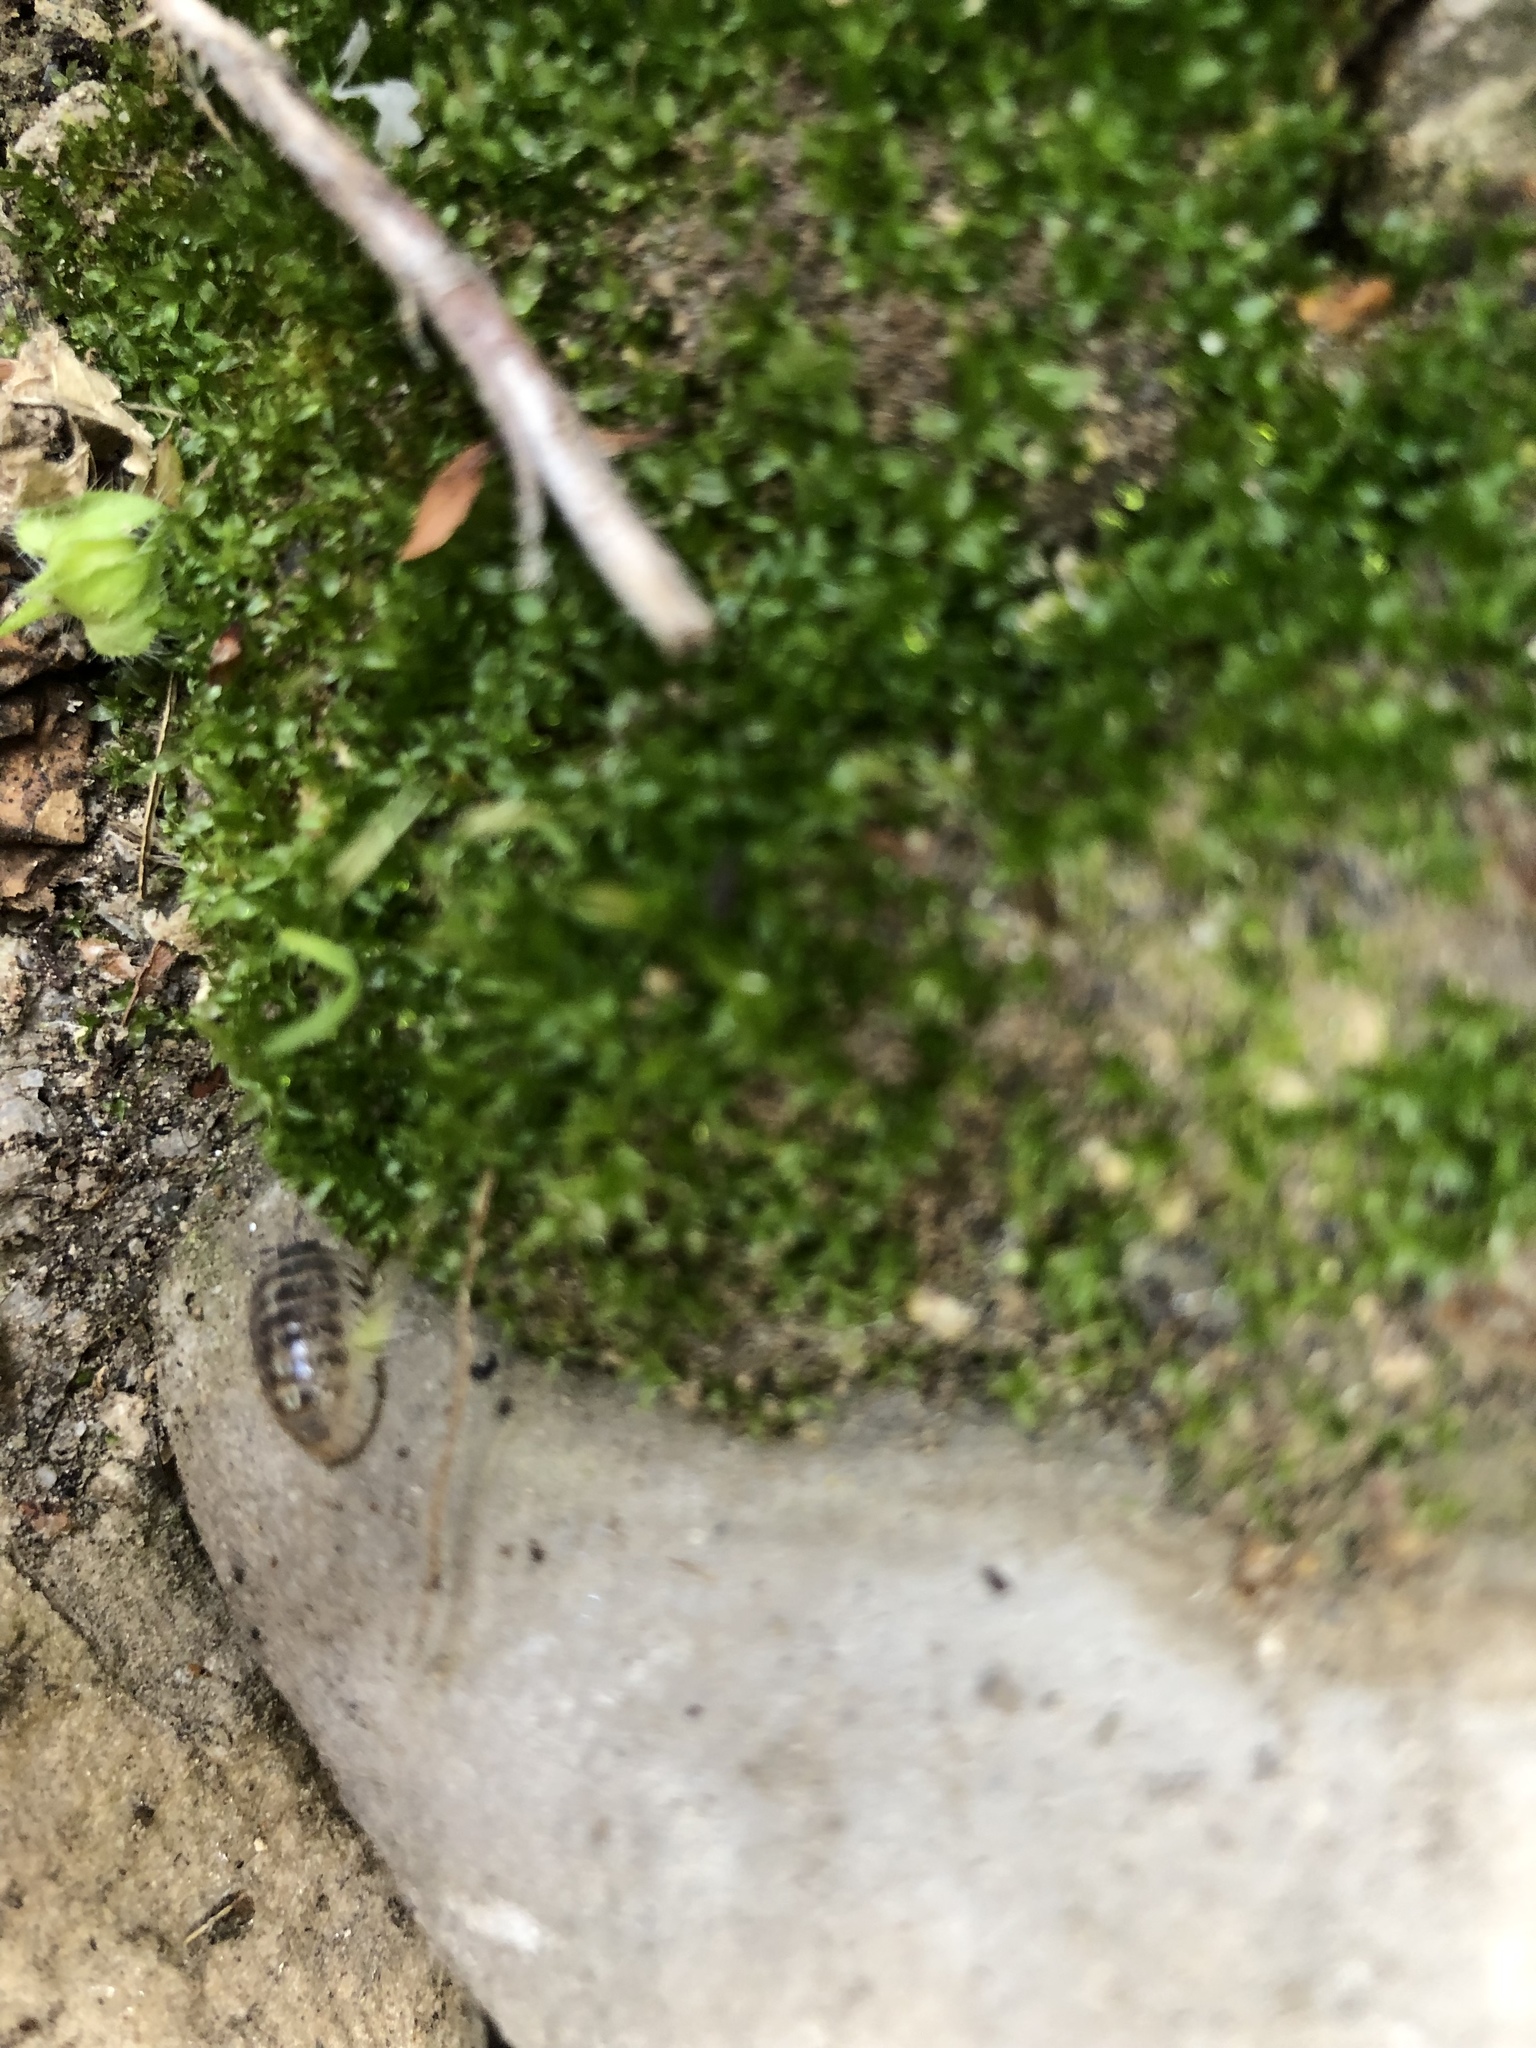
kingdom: Animalia
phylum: Arthropoda
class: Malacostraca
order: Isopoda
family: Armadillidiidae
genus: Armadillidium
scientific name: Armadillidium vulgare
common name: Common pill woodlouse
